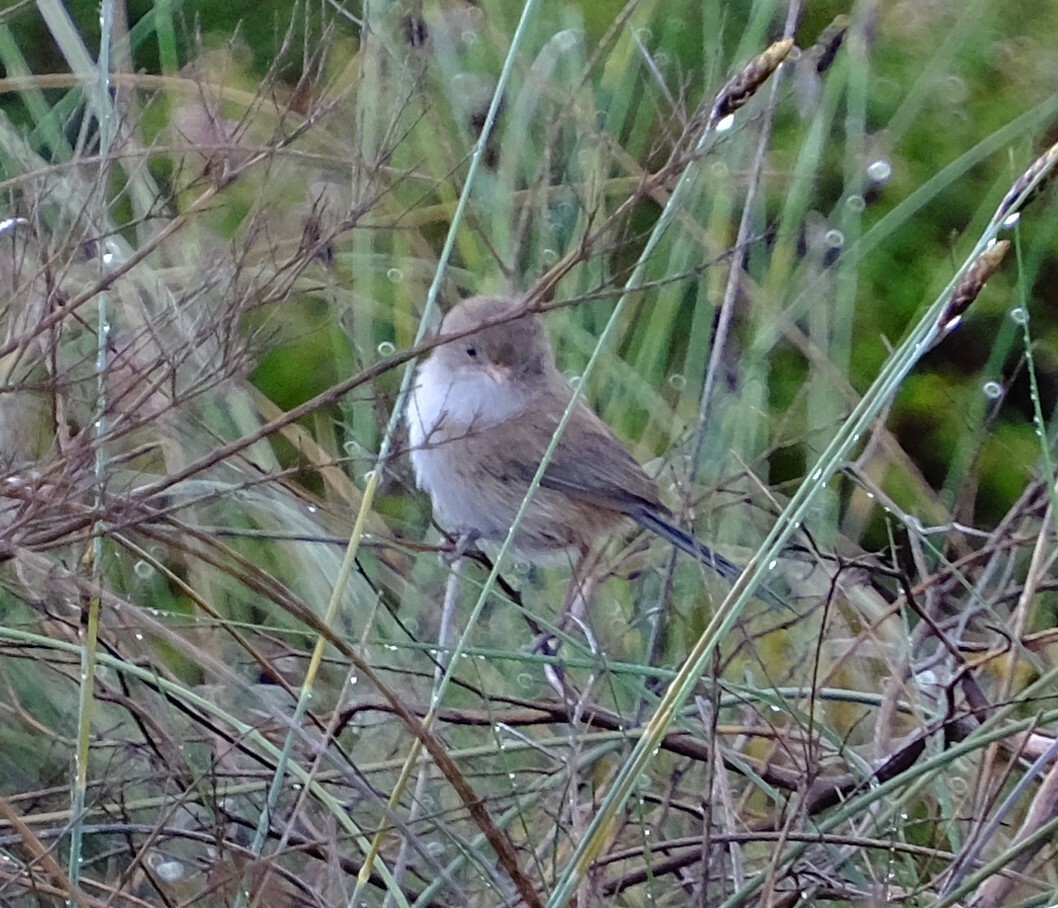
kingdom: Animalia
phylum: Chordata
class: Aves
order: Passeriformes
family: Maluridae
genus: Malurus
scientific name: Malurus leucopterus
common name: White-winged fairywren
